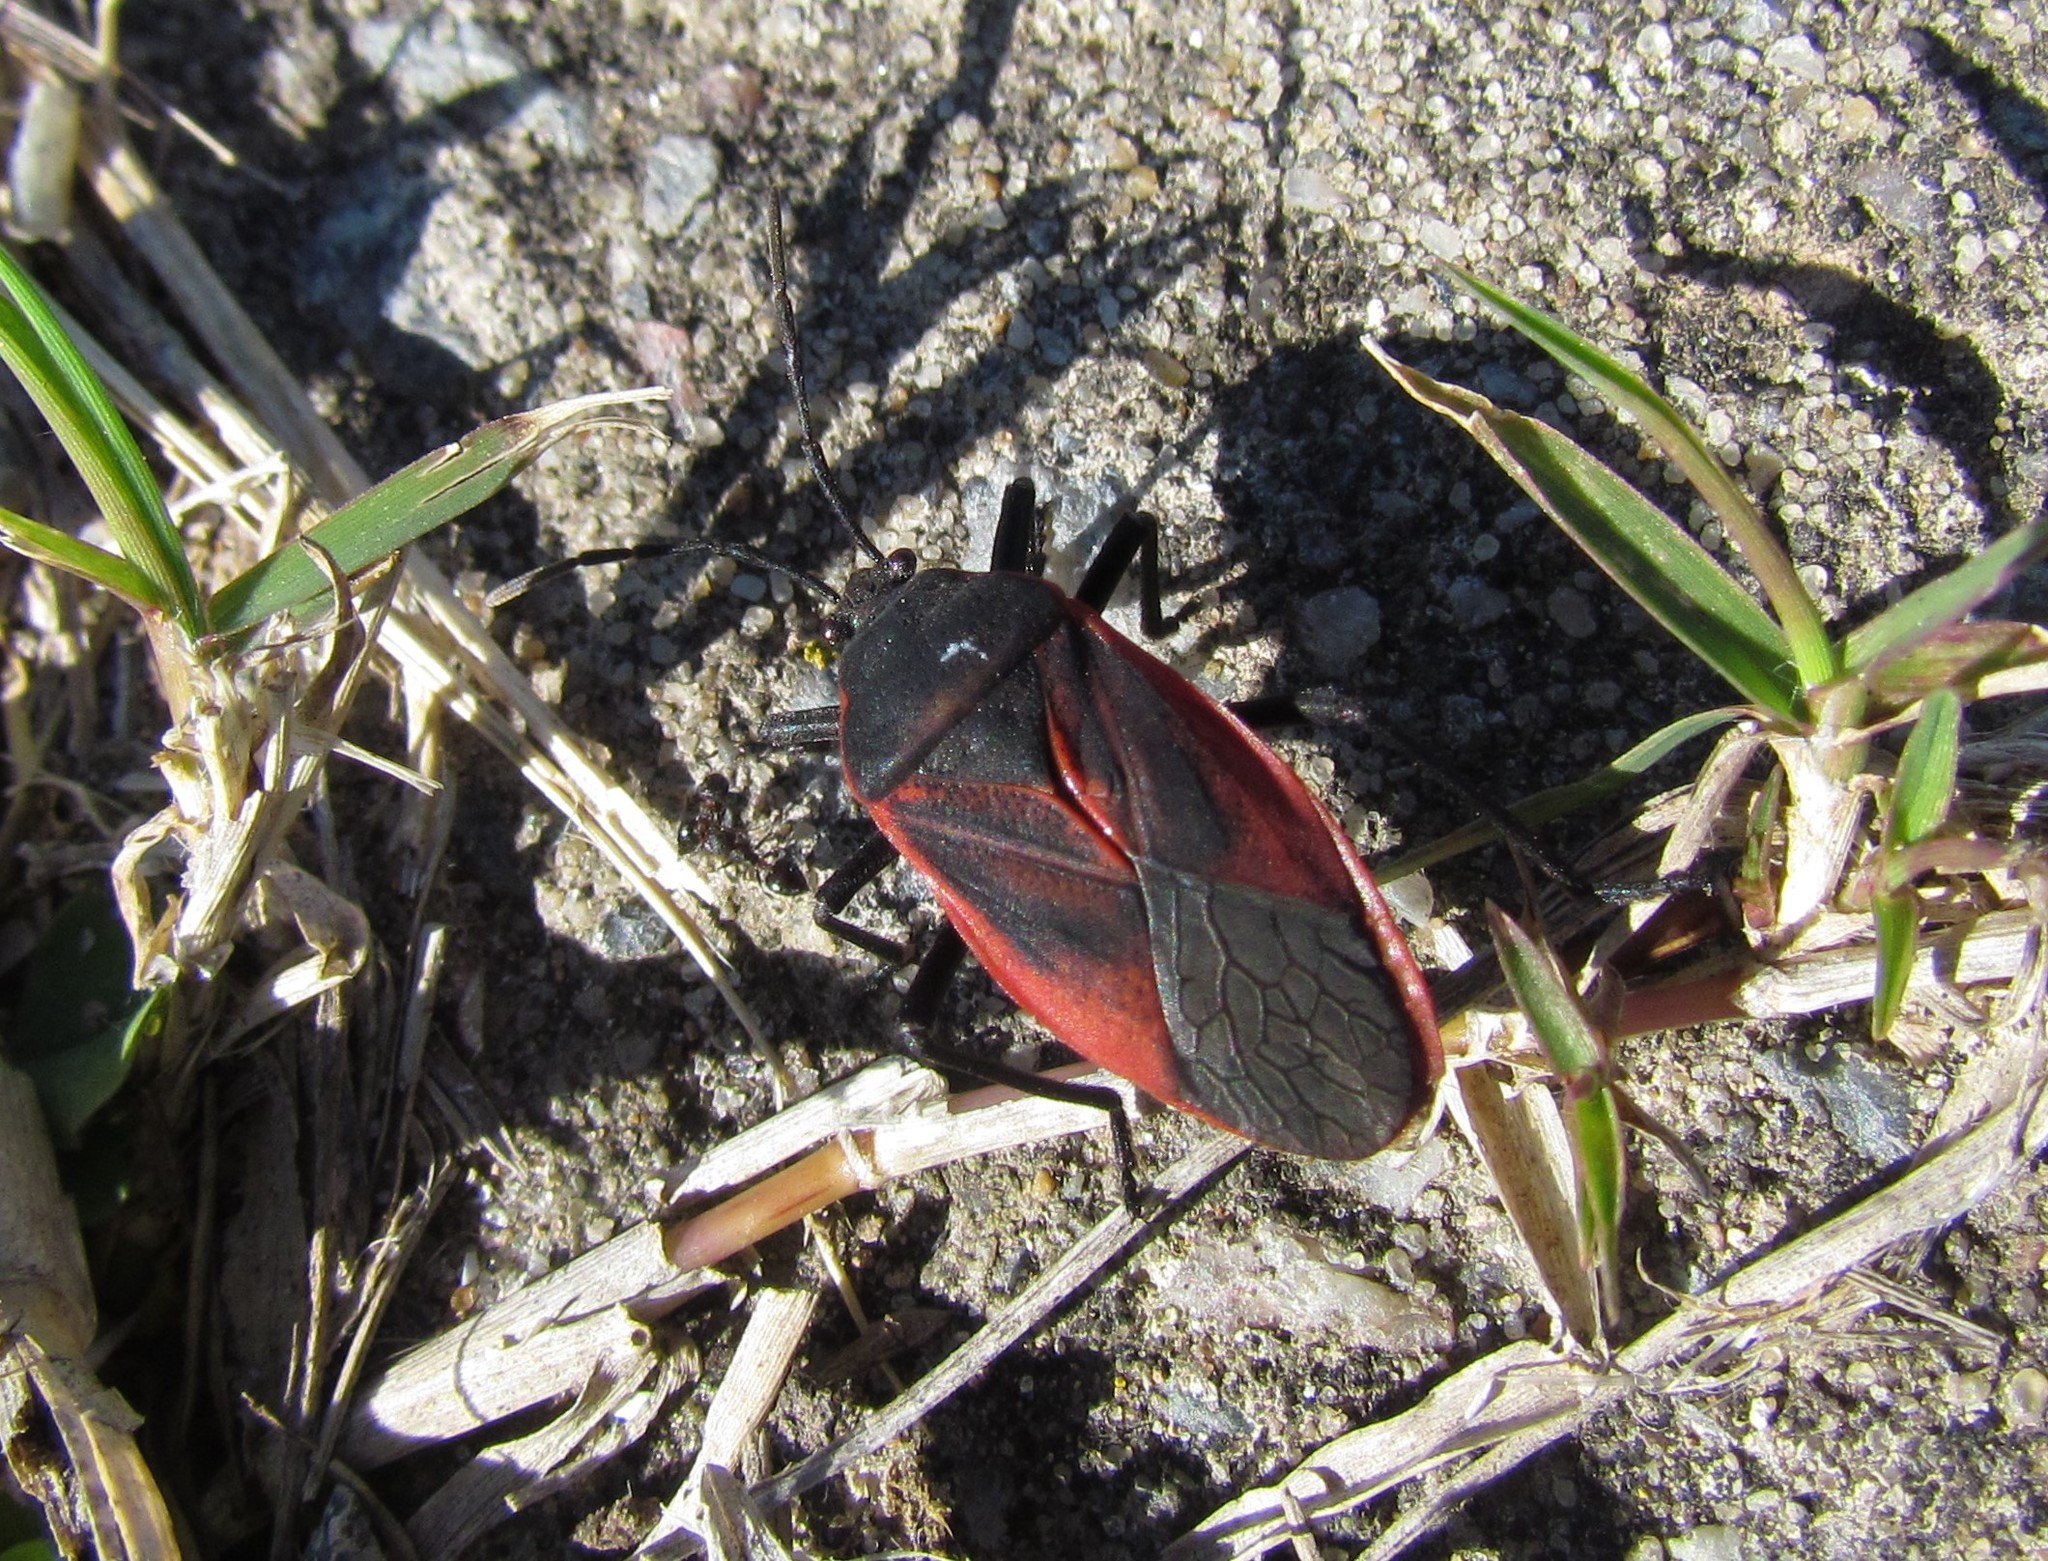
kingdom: Animalia
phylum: Arthropoda
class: Insecta
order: Hemiptera
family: Largidae
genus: Largus
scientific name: Largus rufipennis
